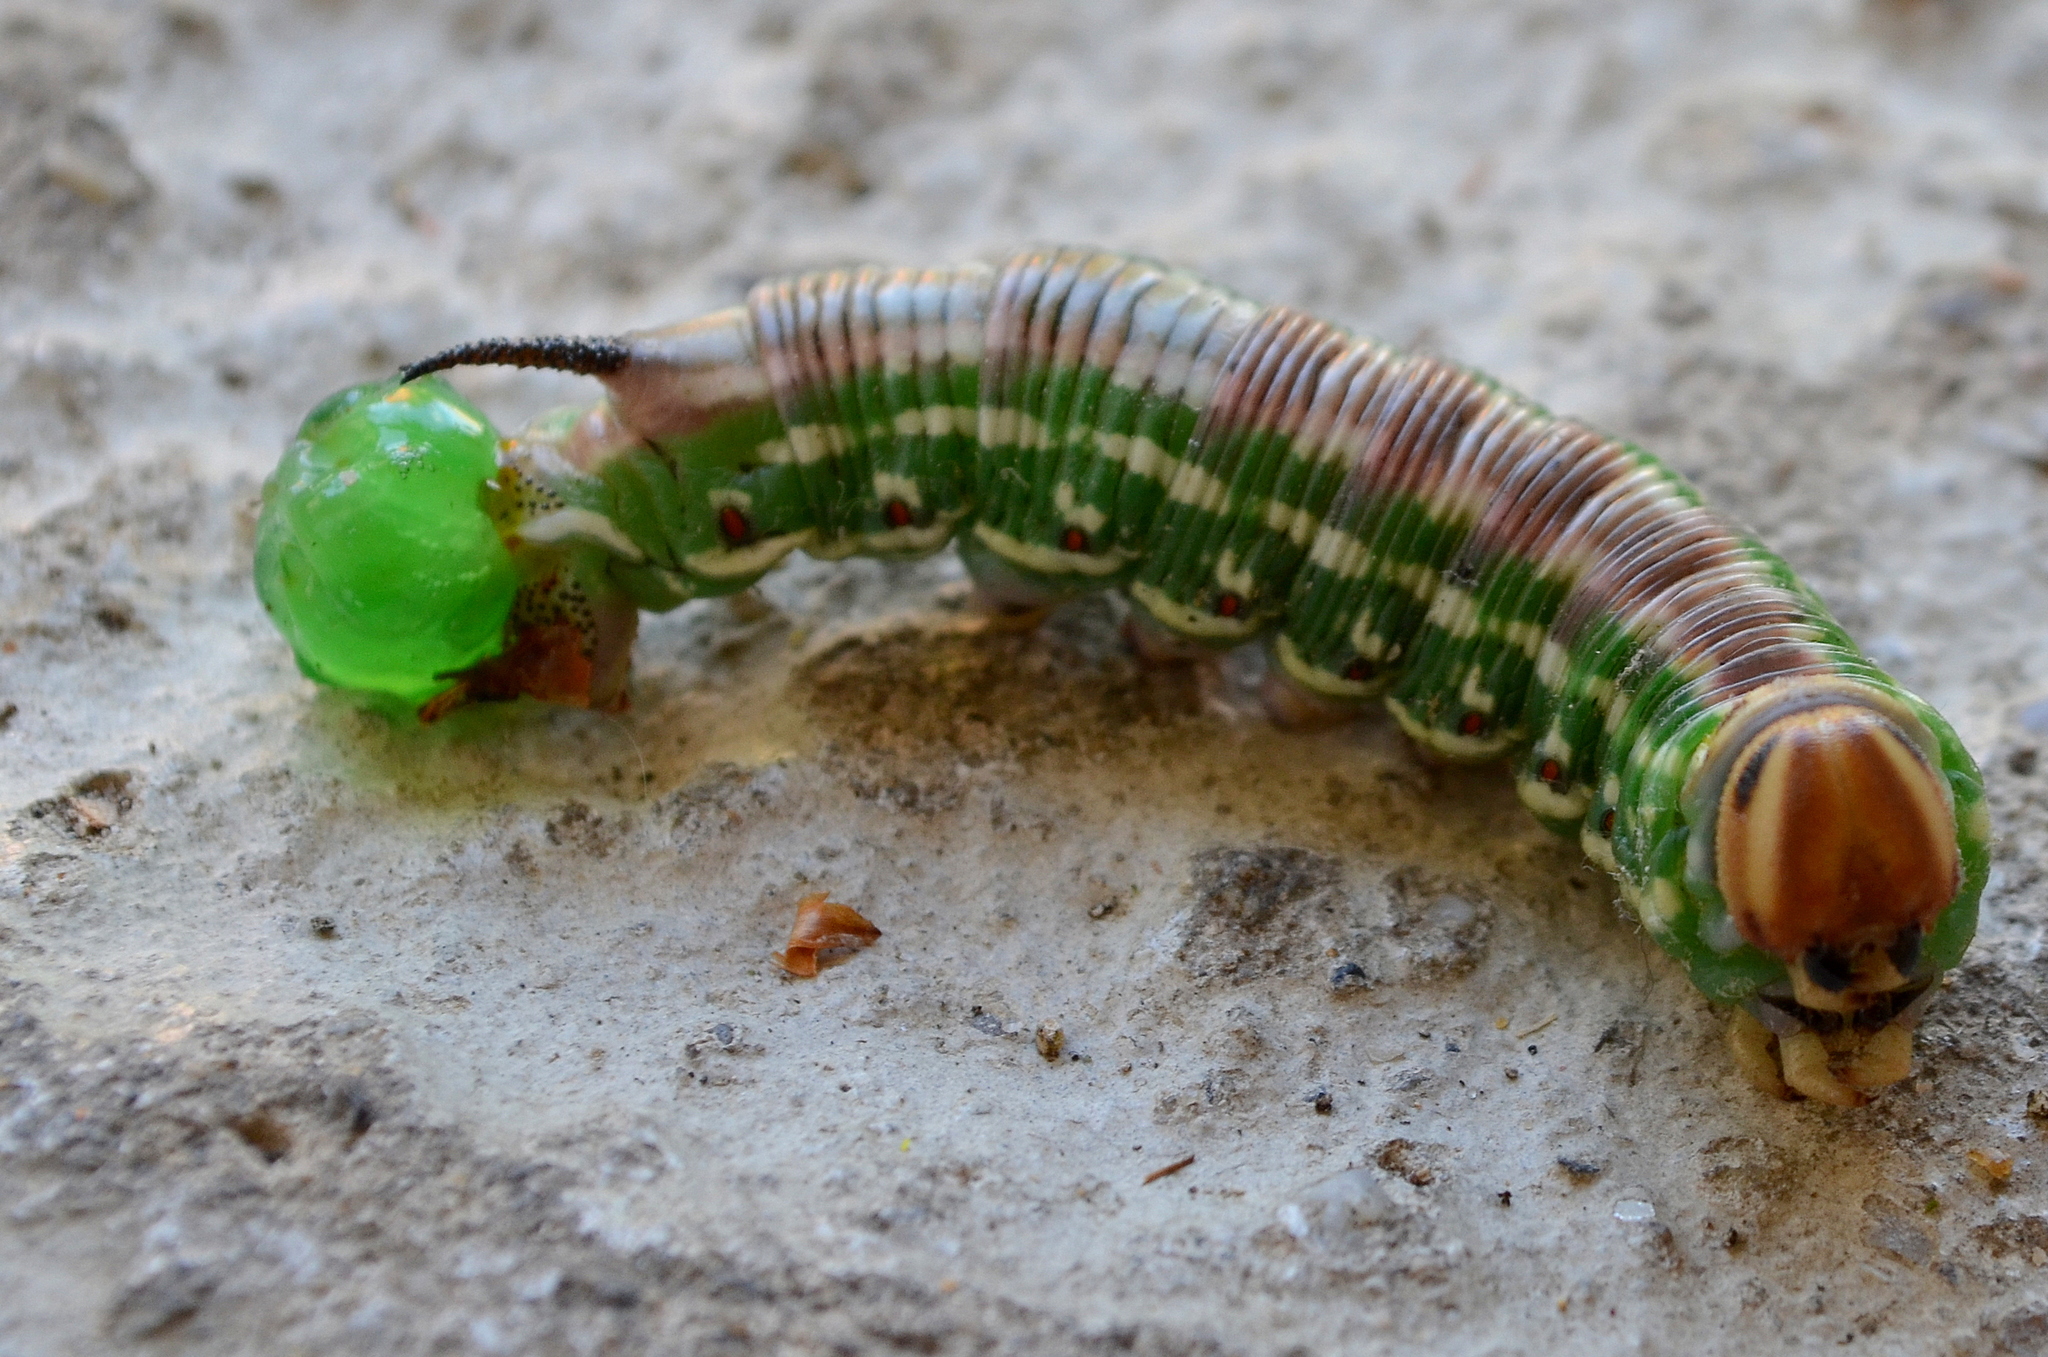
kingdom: Animalia
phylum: Arthropoda
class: Insecta
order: Lepidoptera
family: Sphingidae
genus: Sphinx
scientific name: Sphinx pinastri
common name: Pine hawk-moth
